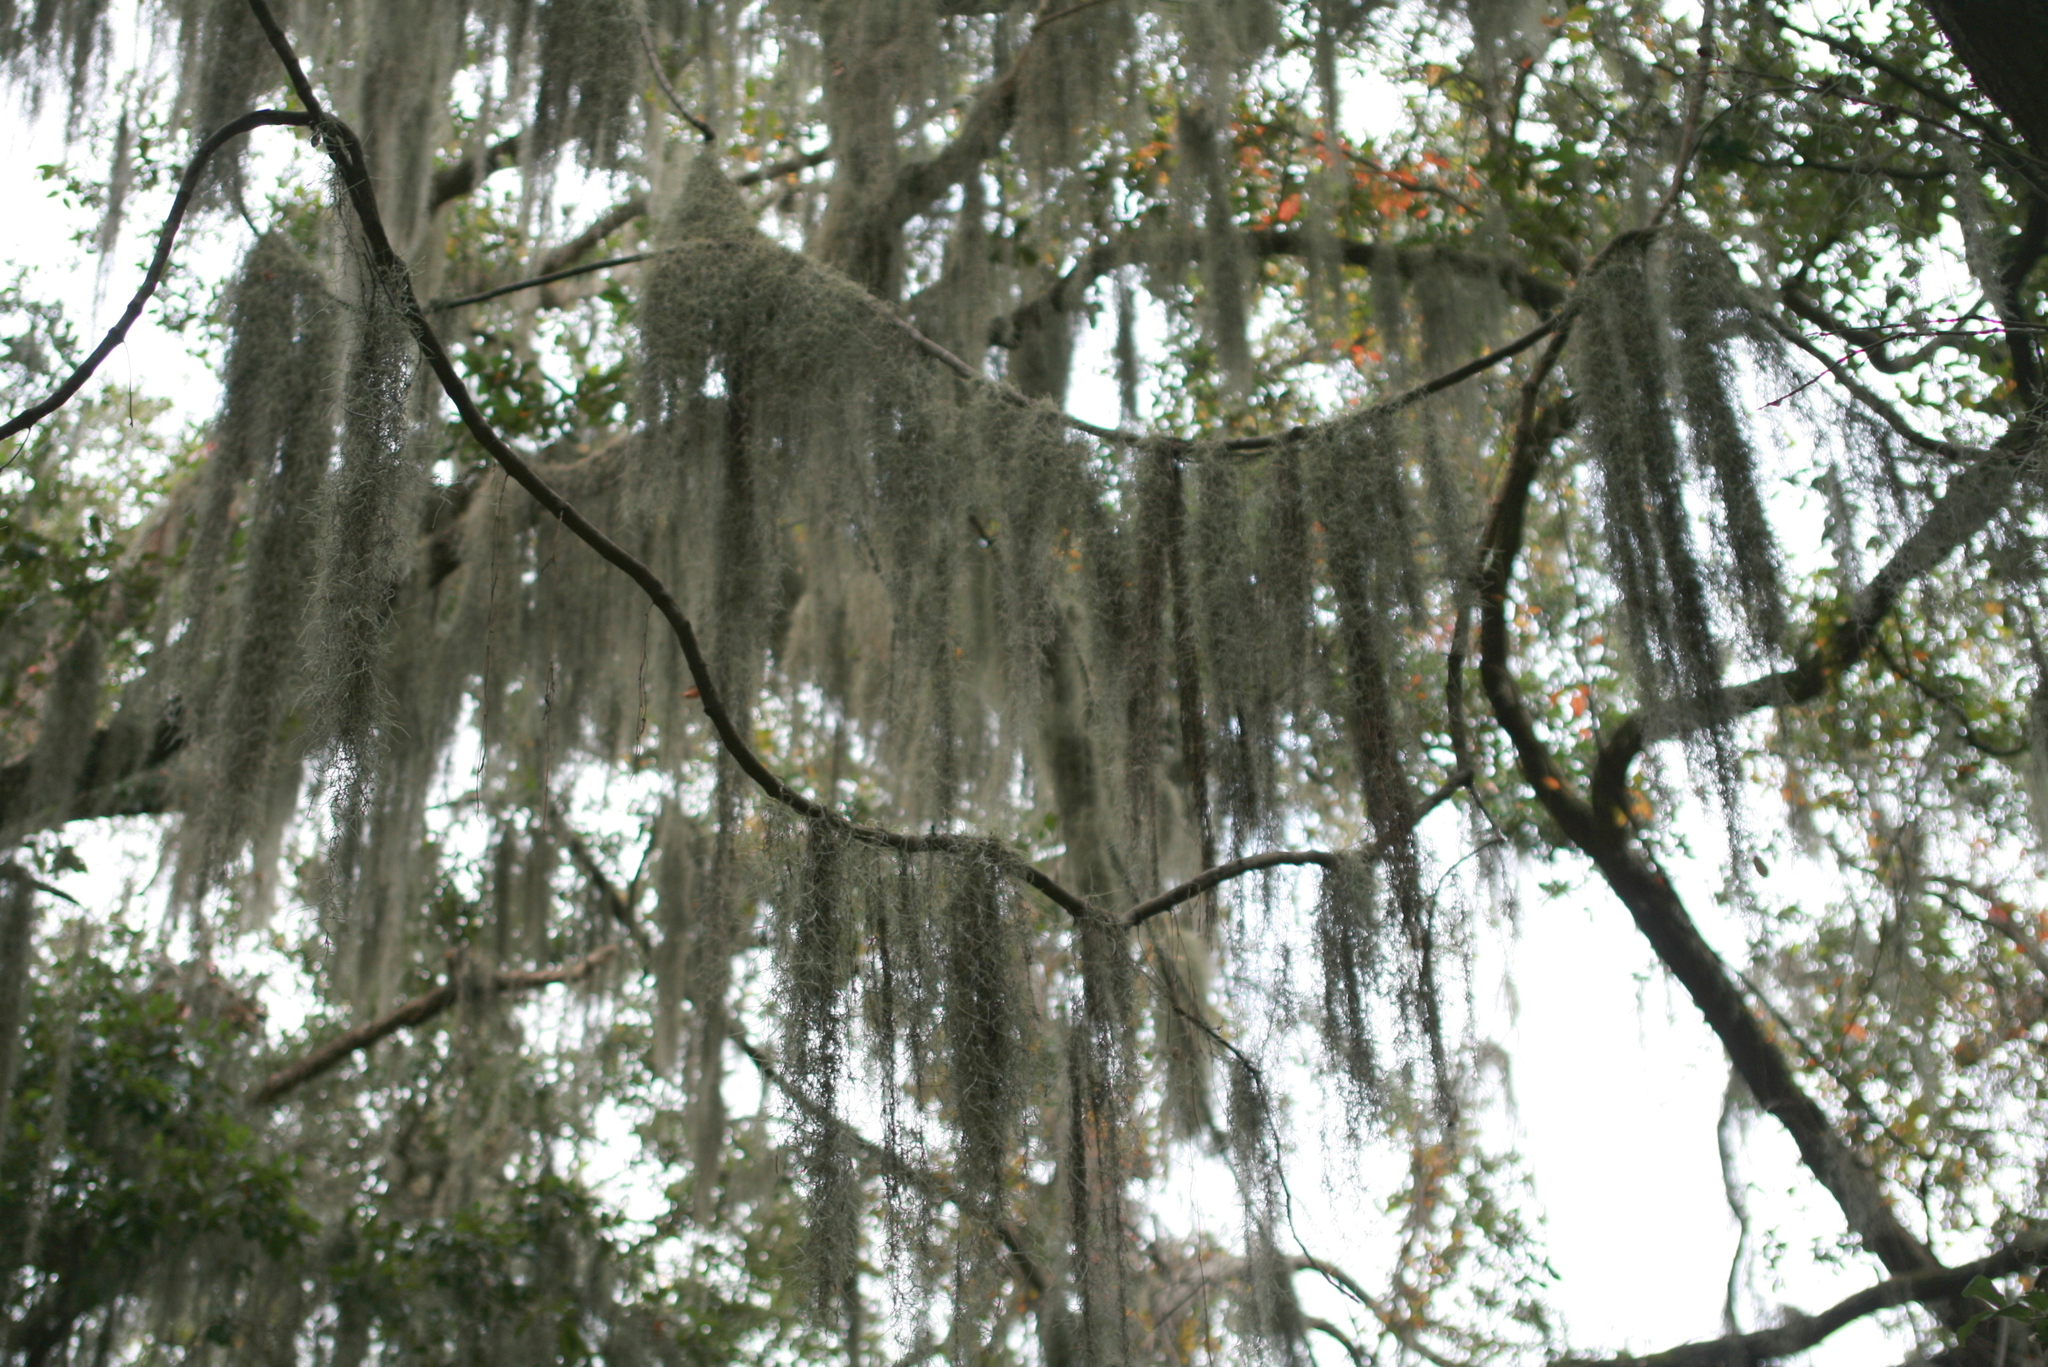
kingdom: Plantae
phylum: Tracheophyta
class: Liliopsida
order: Poales
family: Bromeliaceae
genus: Tillandsia
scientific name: Tillandsia usneoides
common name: Spanish moss
